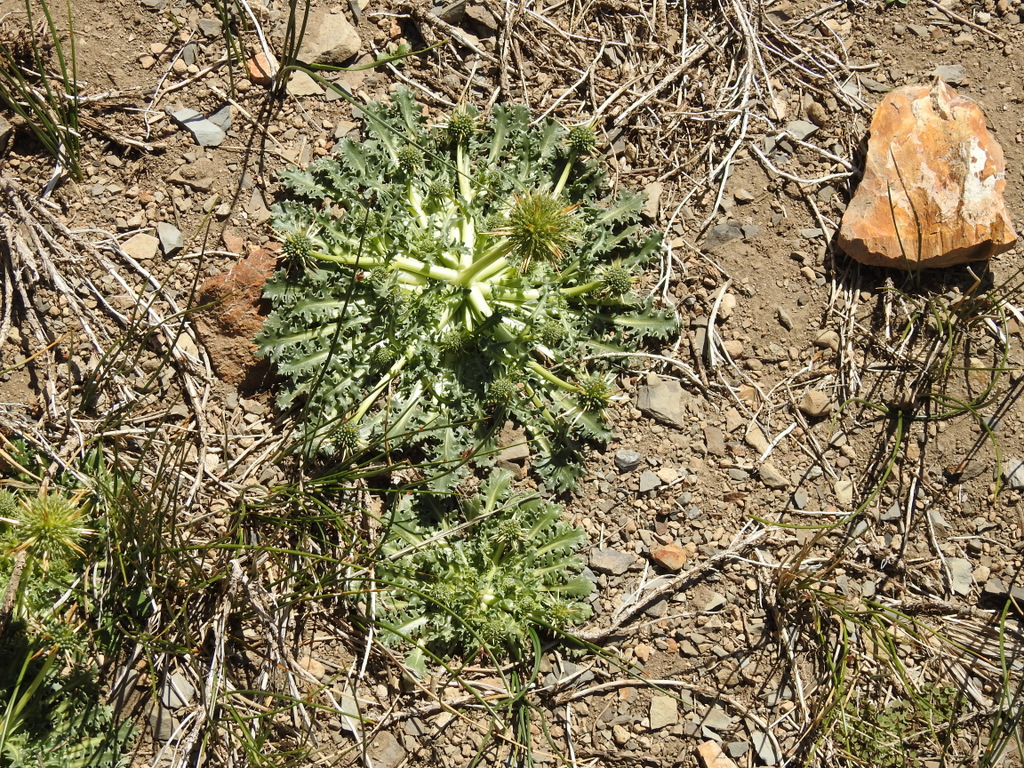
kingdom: Plantae
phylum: Tracheophyta
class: Magnoliopsida
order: Asterales
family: Calyceraceae
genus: Calycera
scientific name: Calycera herbacea
